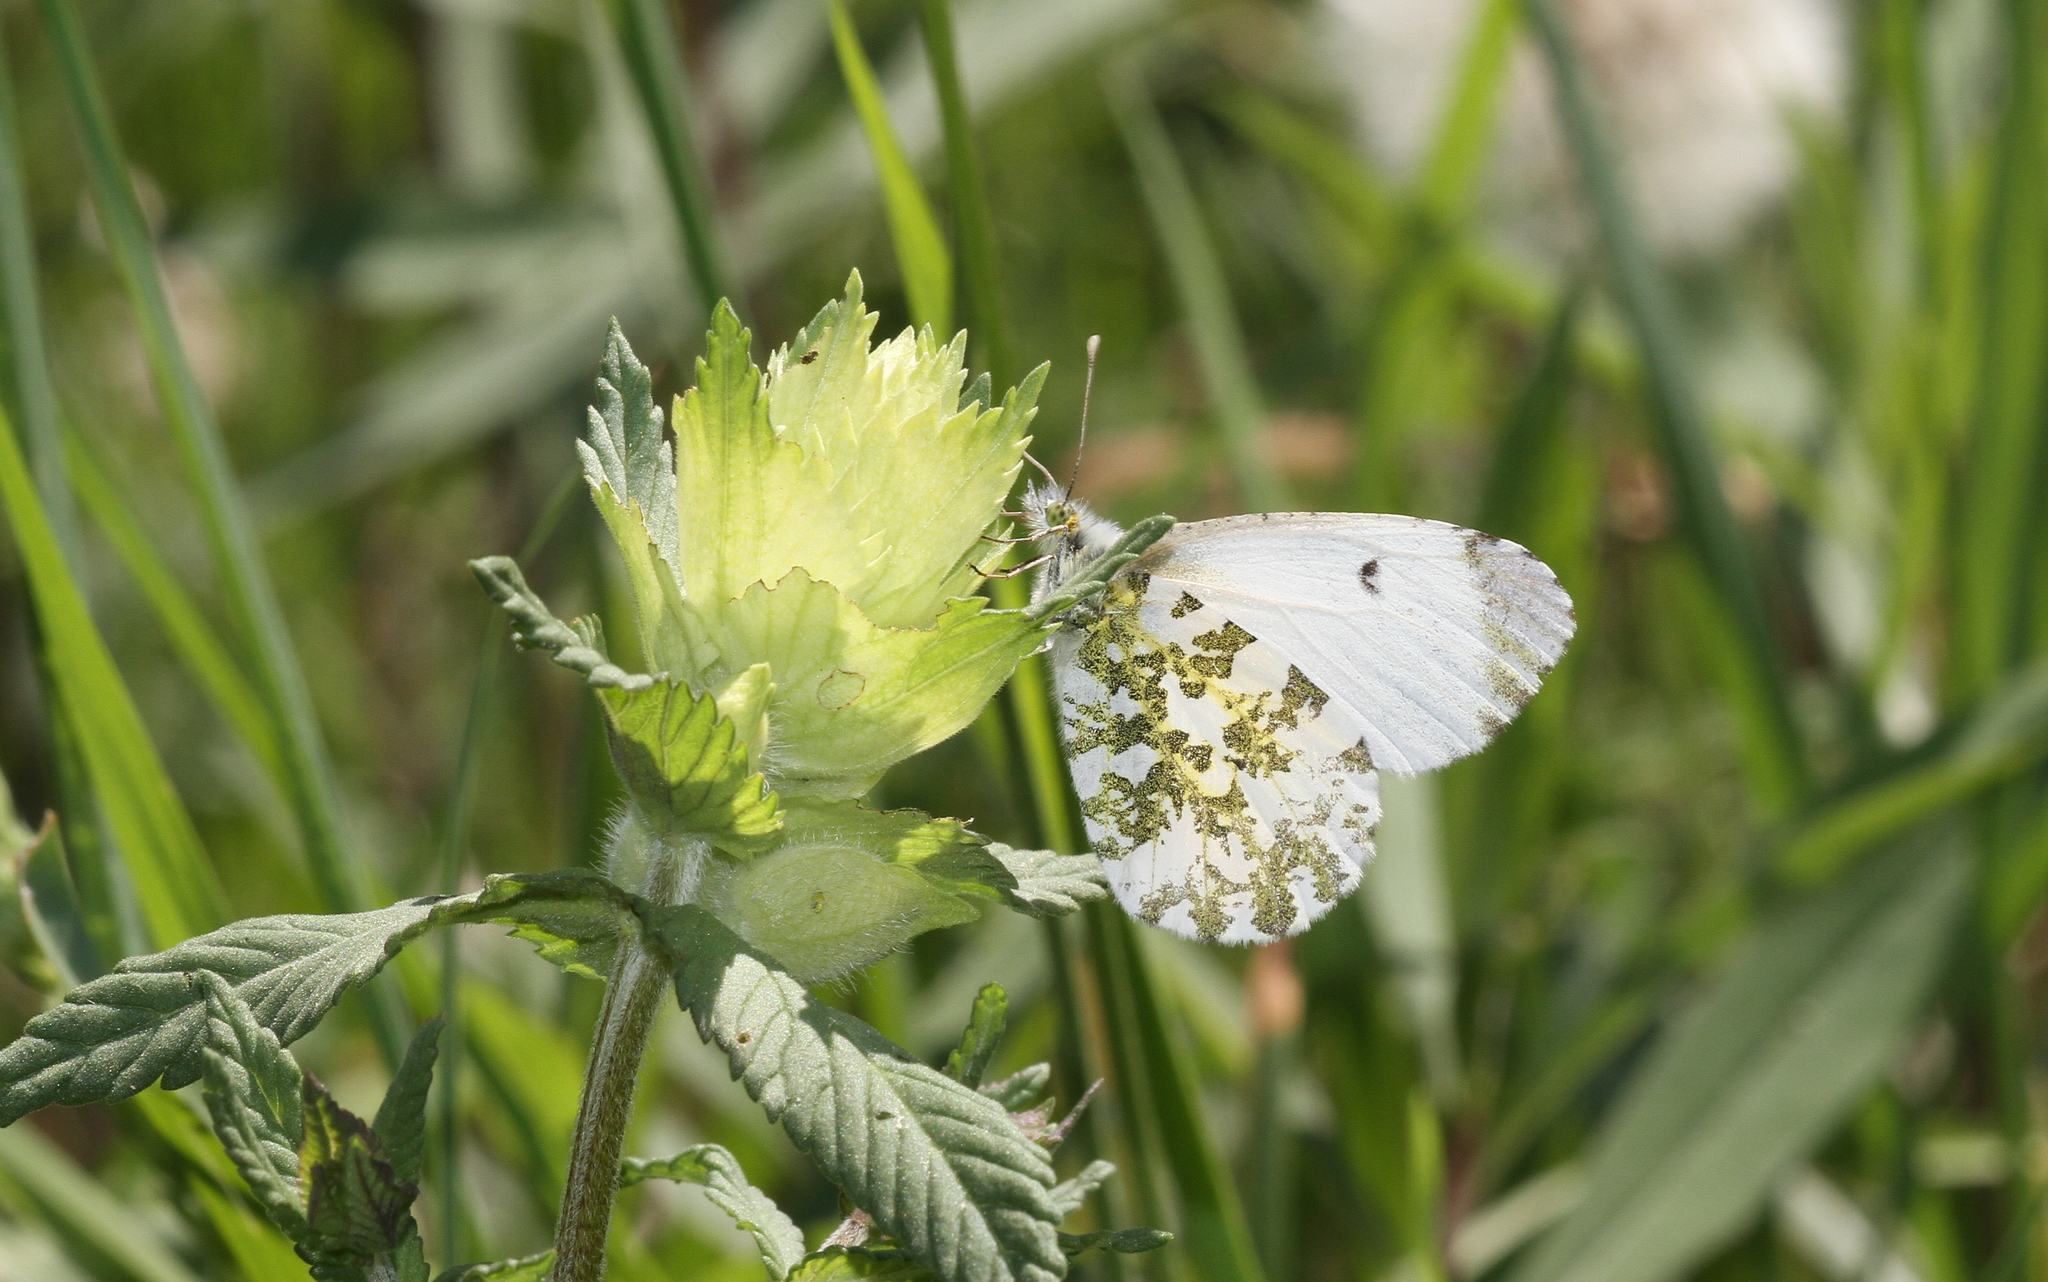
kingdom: Animalia
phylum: Arthropoda
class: Insecta
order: Lepidoptera
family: Pieridae
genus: Anthocharis
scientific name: Anthocharis cardamines
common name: Orange-tip
